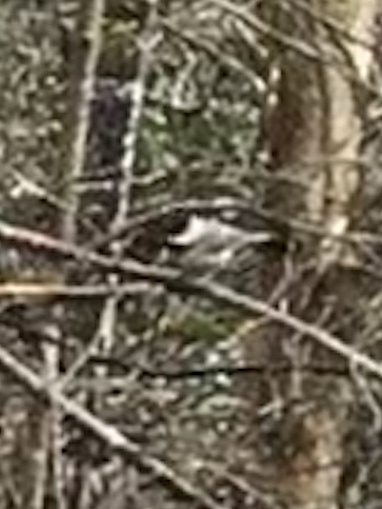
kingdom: Animalia
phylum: Chordata
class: Aves
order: Passeriformes
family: Paridae
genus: Poecile
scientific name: Poecile carolinensis
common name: Carolina chickadee
